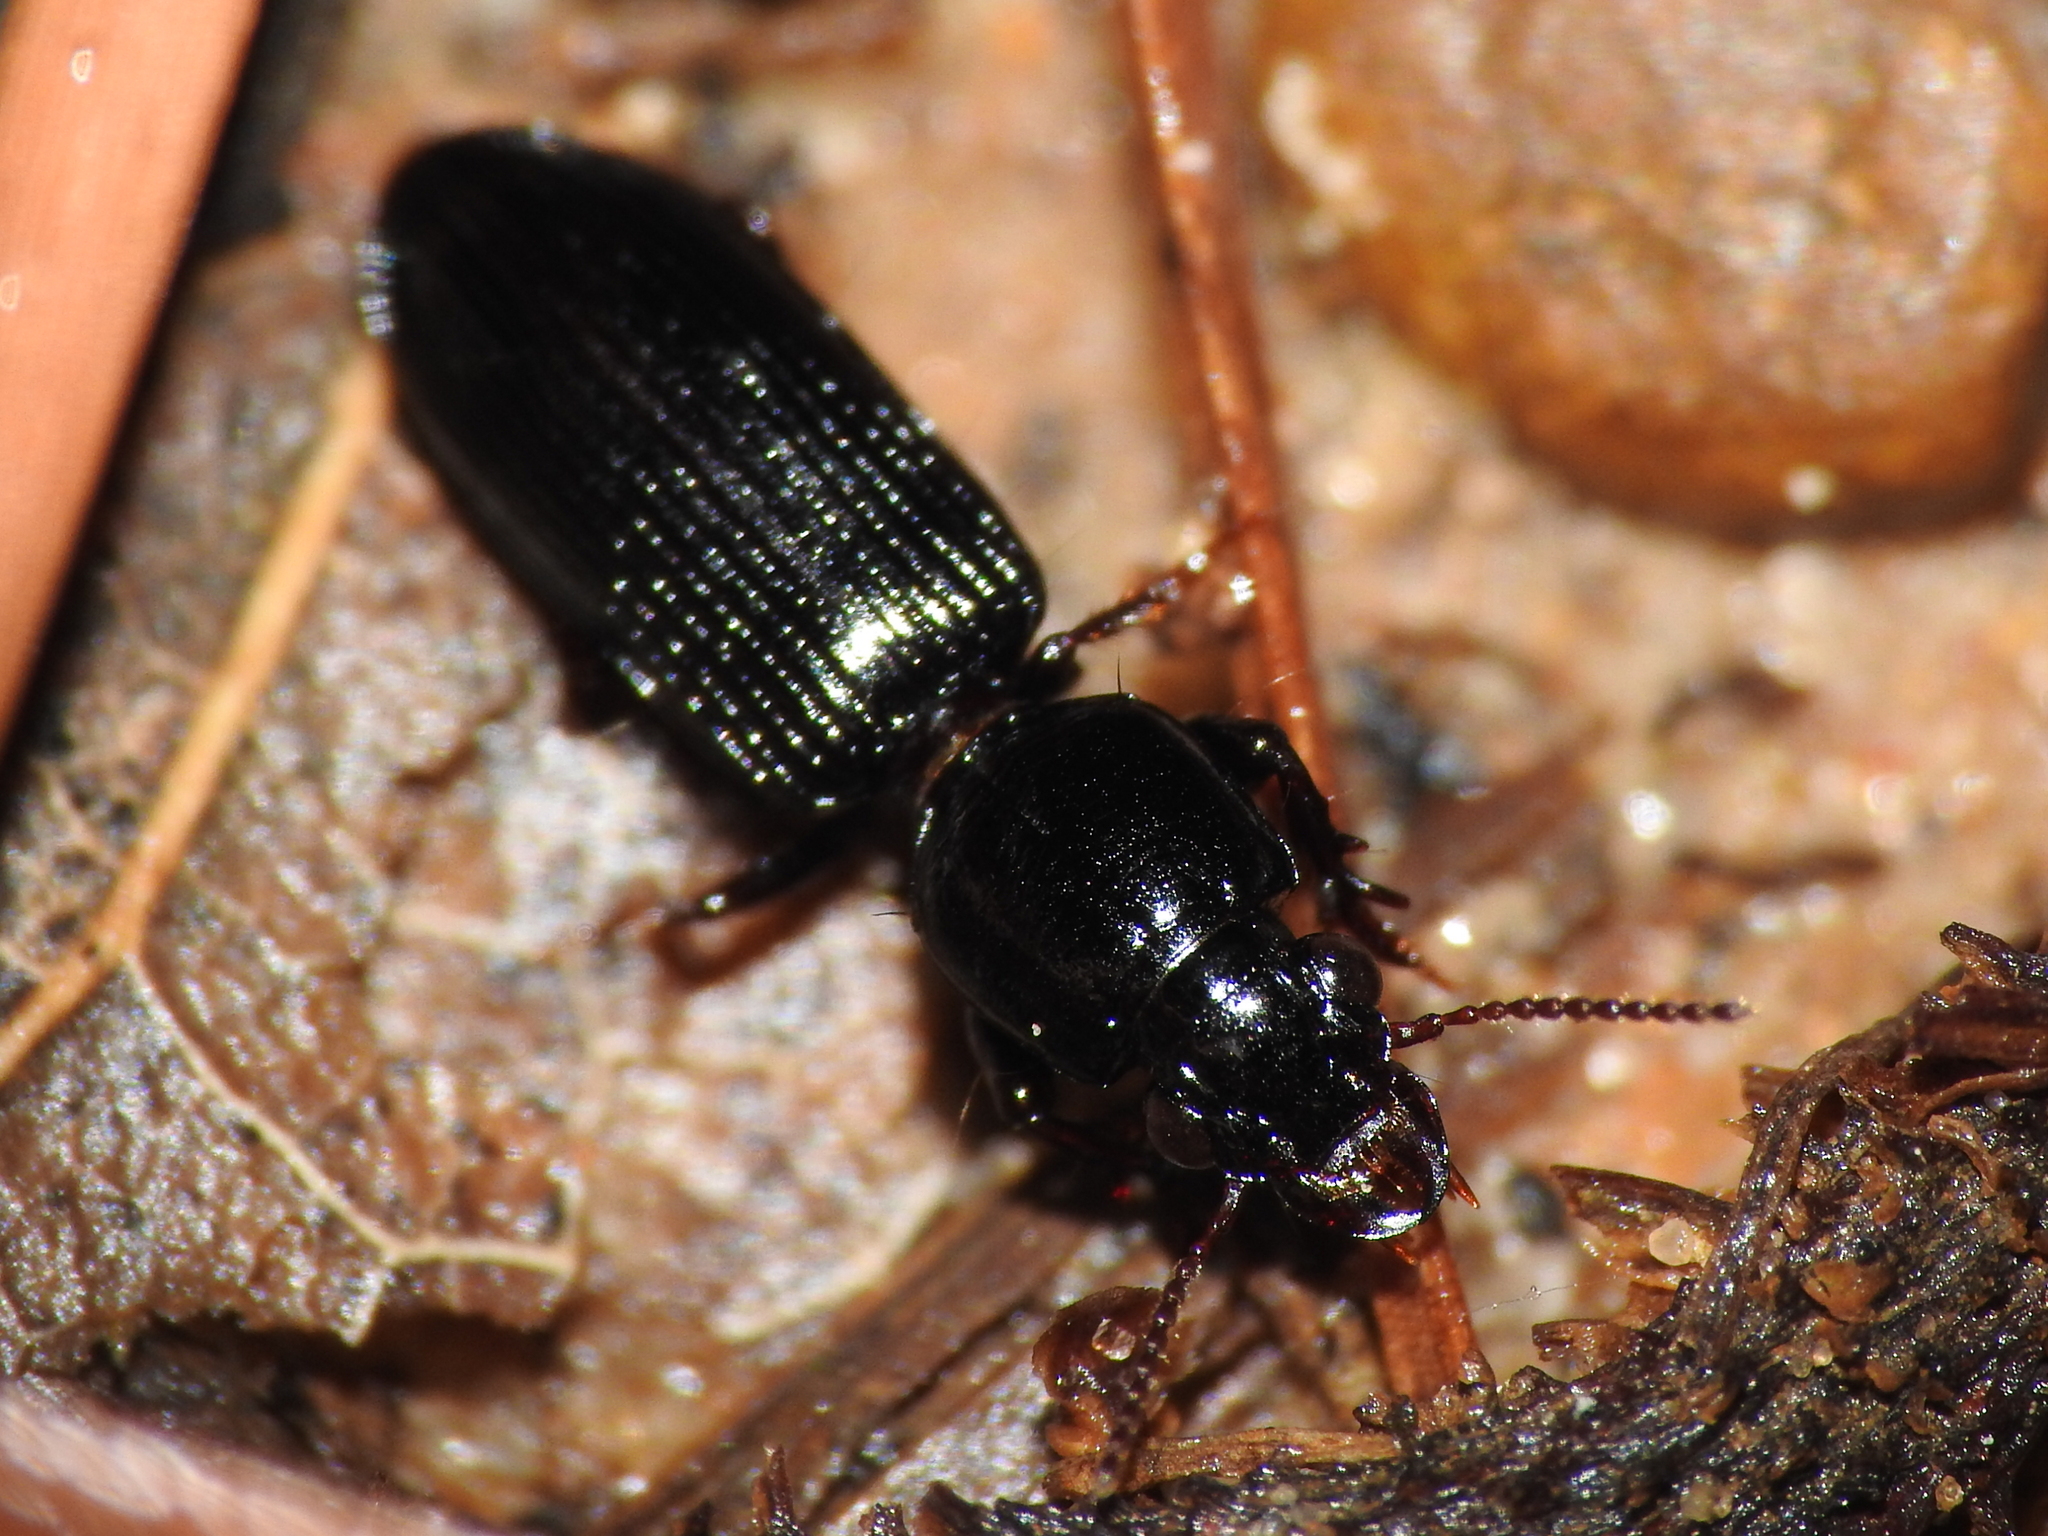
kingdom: Animalia
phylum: Arthropoda
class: Insecta
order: Coleoptera
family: Carabidae
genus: Semiclivina
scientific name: Semiclivina dentipes
